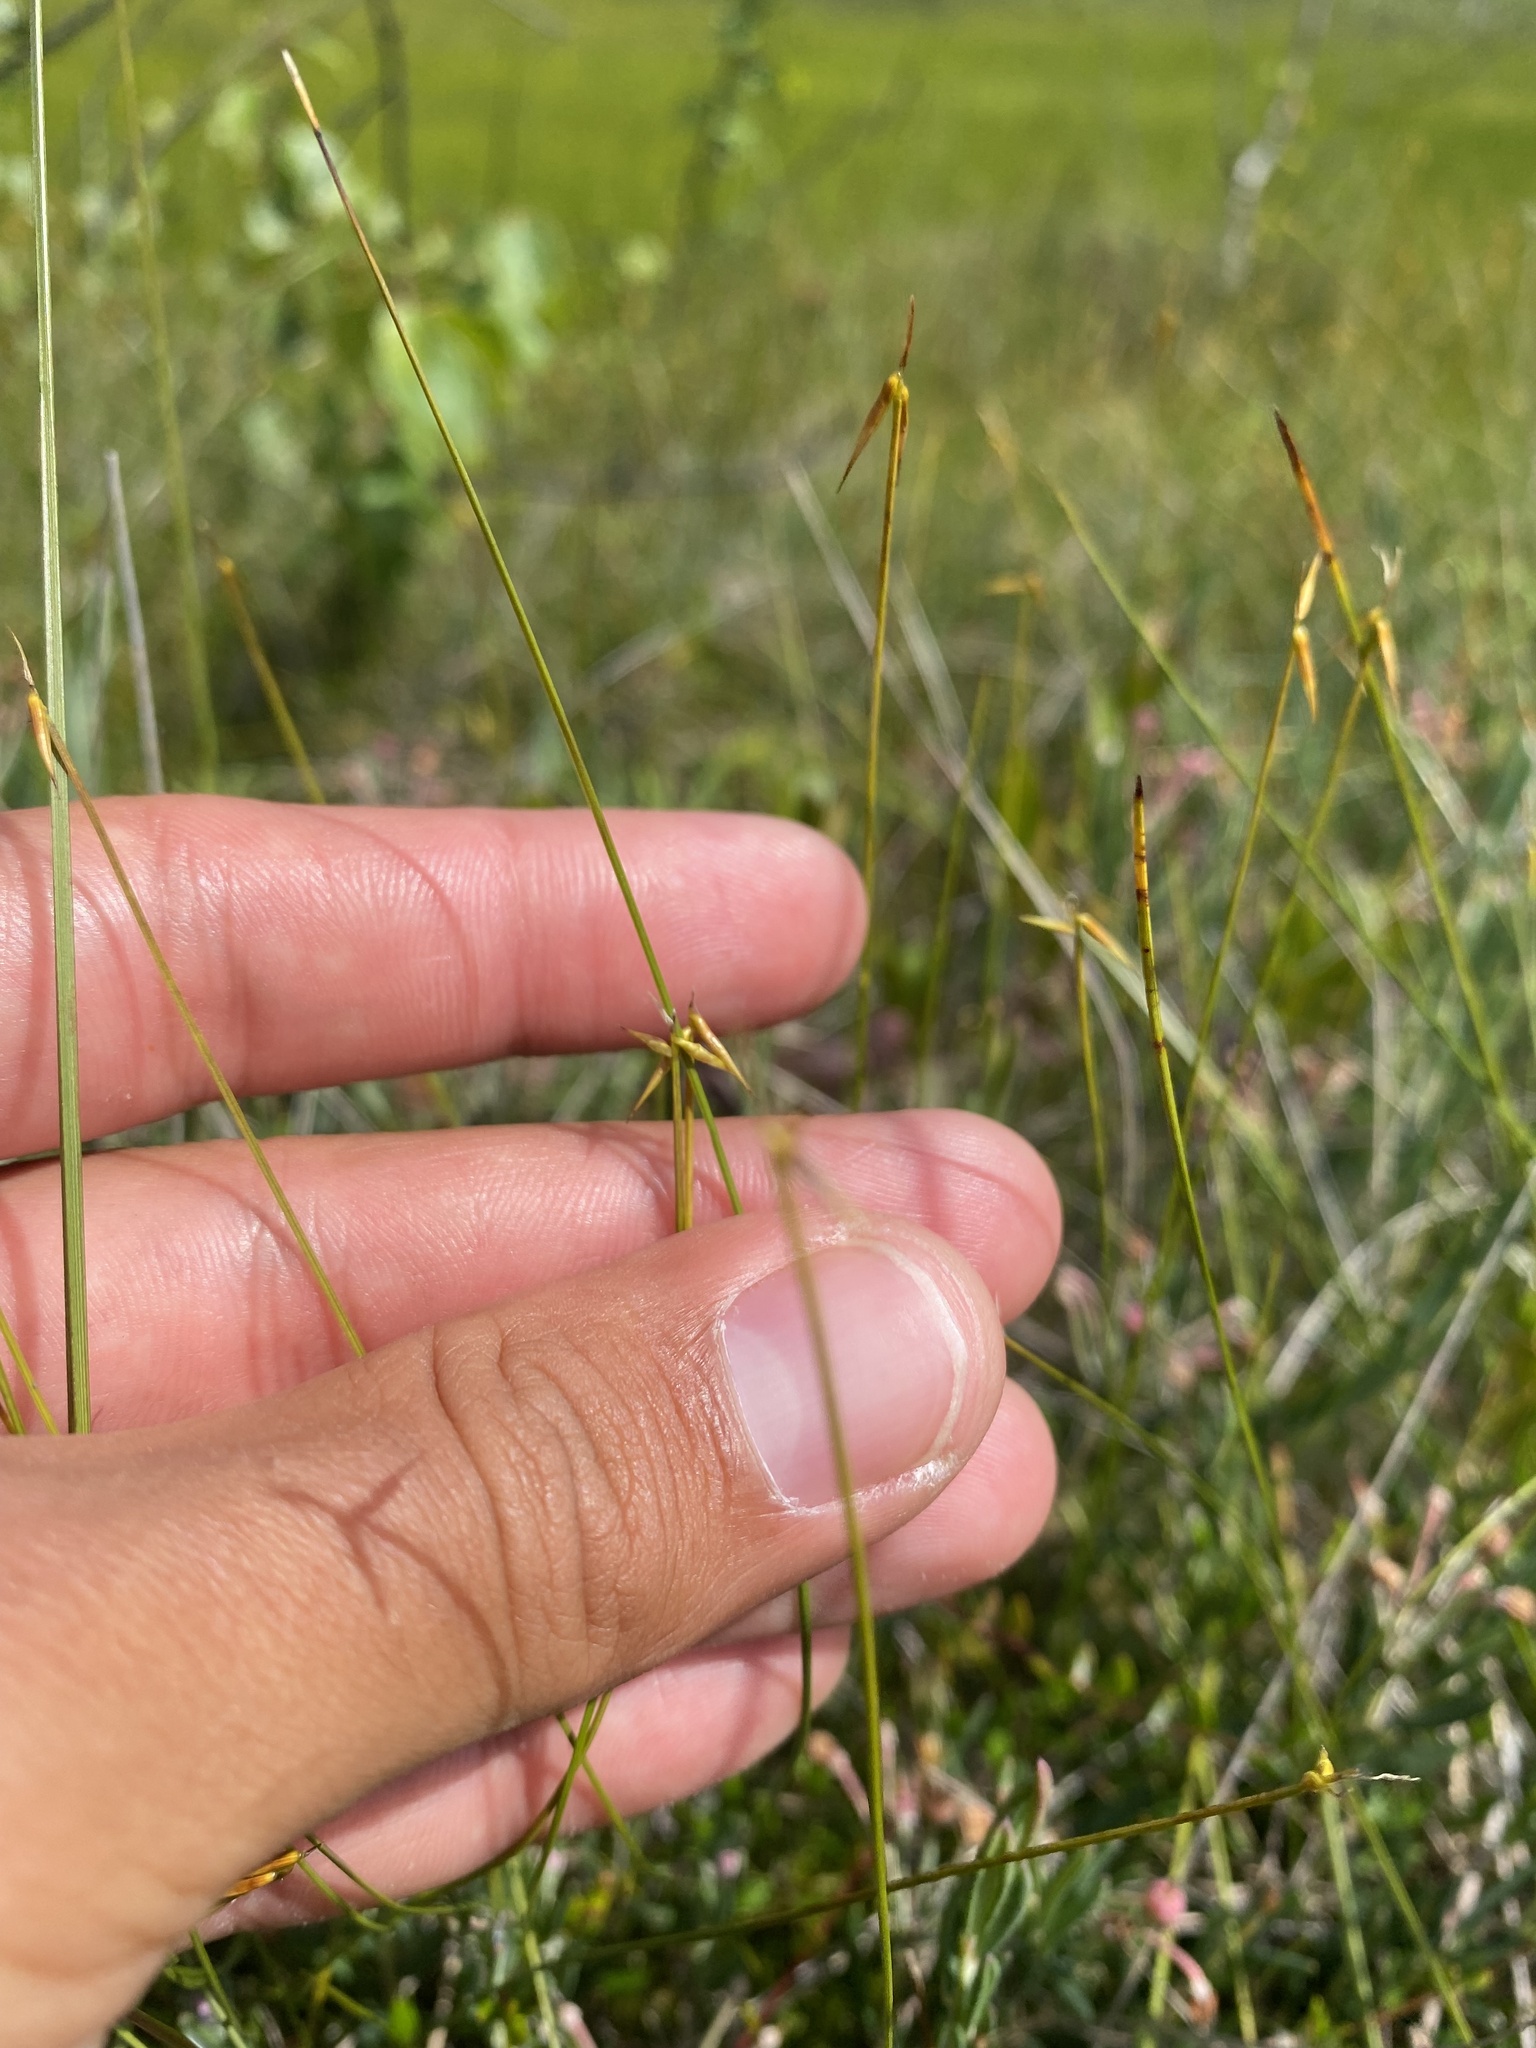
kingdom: Plantae
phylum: Tracheophyta
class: Liliopsida
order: Poales
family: Cyperaceae
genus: Carex
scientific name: Carex pauciflora
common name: Few-flowered sedge
